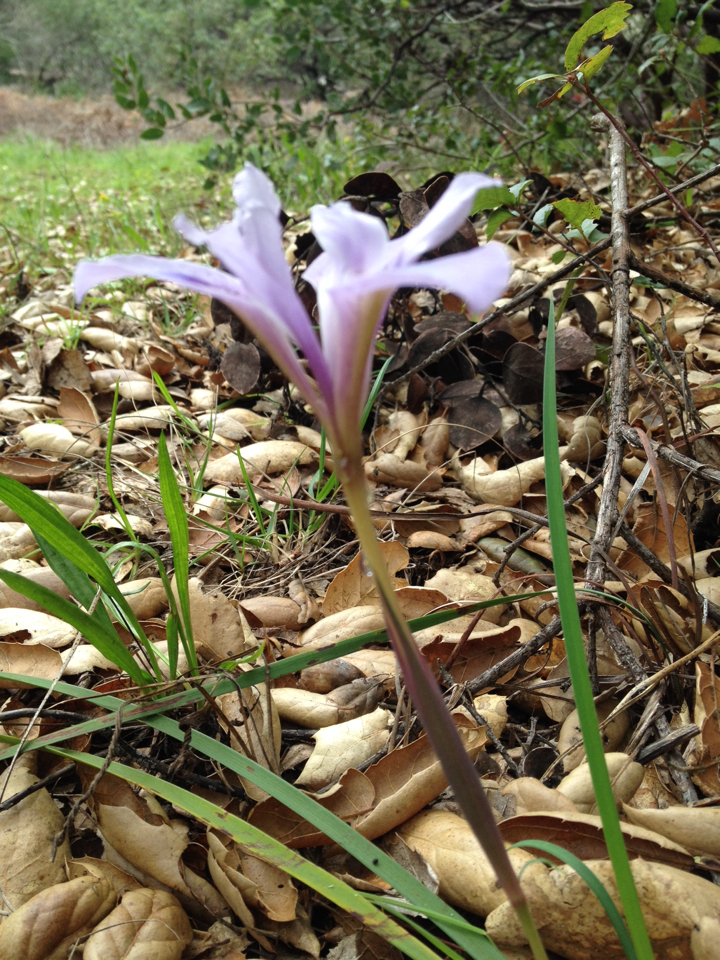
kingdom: Plantae
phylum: Tracheophyta
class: Liliopsida
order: Asparagales
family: Iridaceae
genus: Iris
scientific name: Iris macrosiphon
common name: Ground iris
